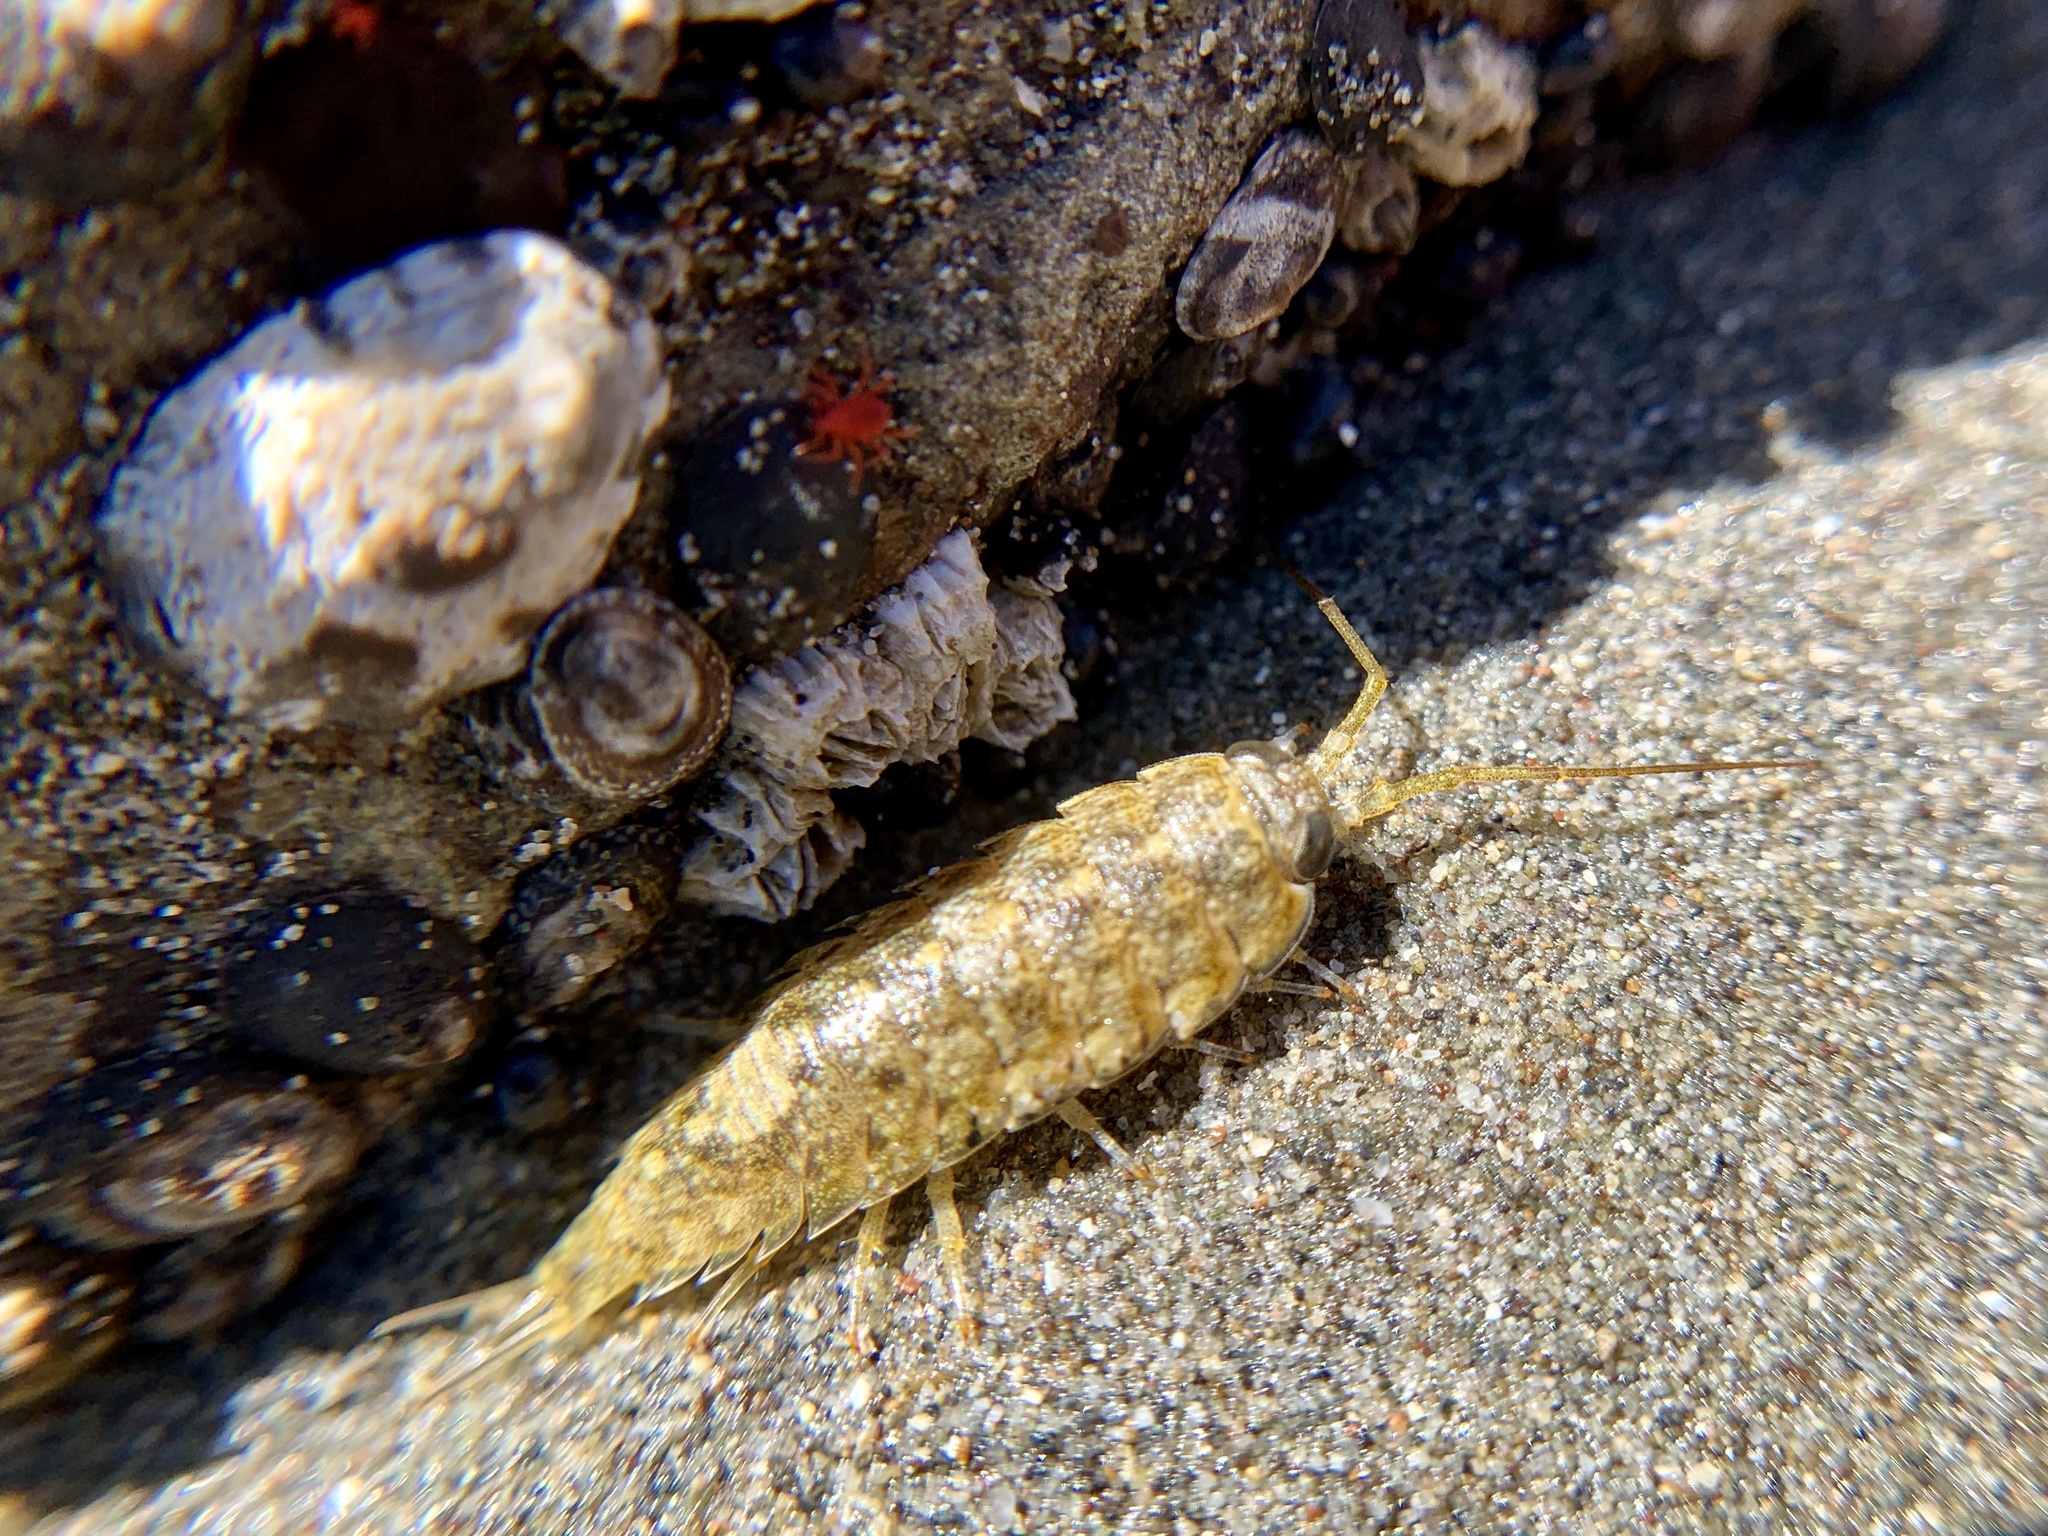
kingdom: Animalia
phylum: Arthropoda
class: Malacostraca
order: Isopoda
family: Ligiidae
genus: Ligia
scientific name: Ligia occidentalis
